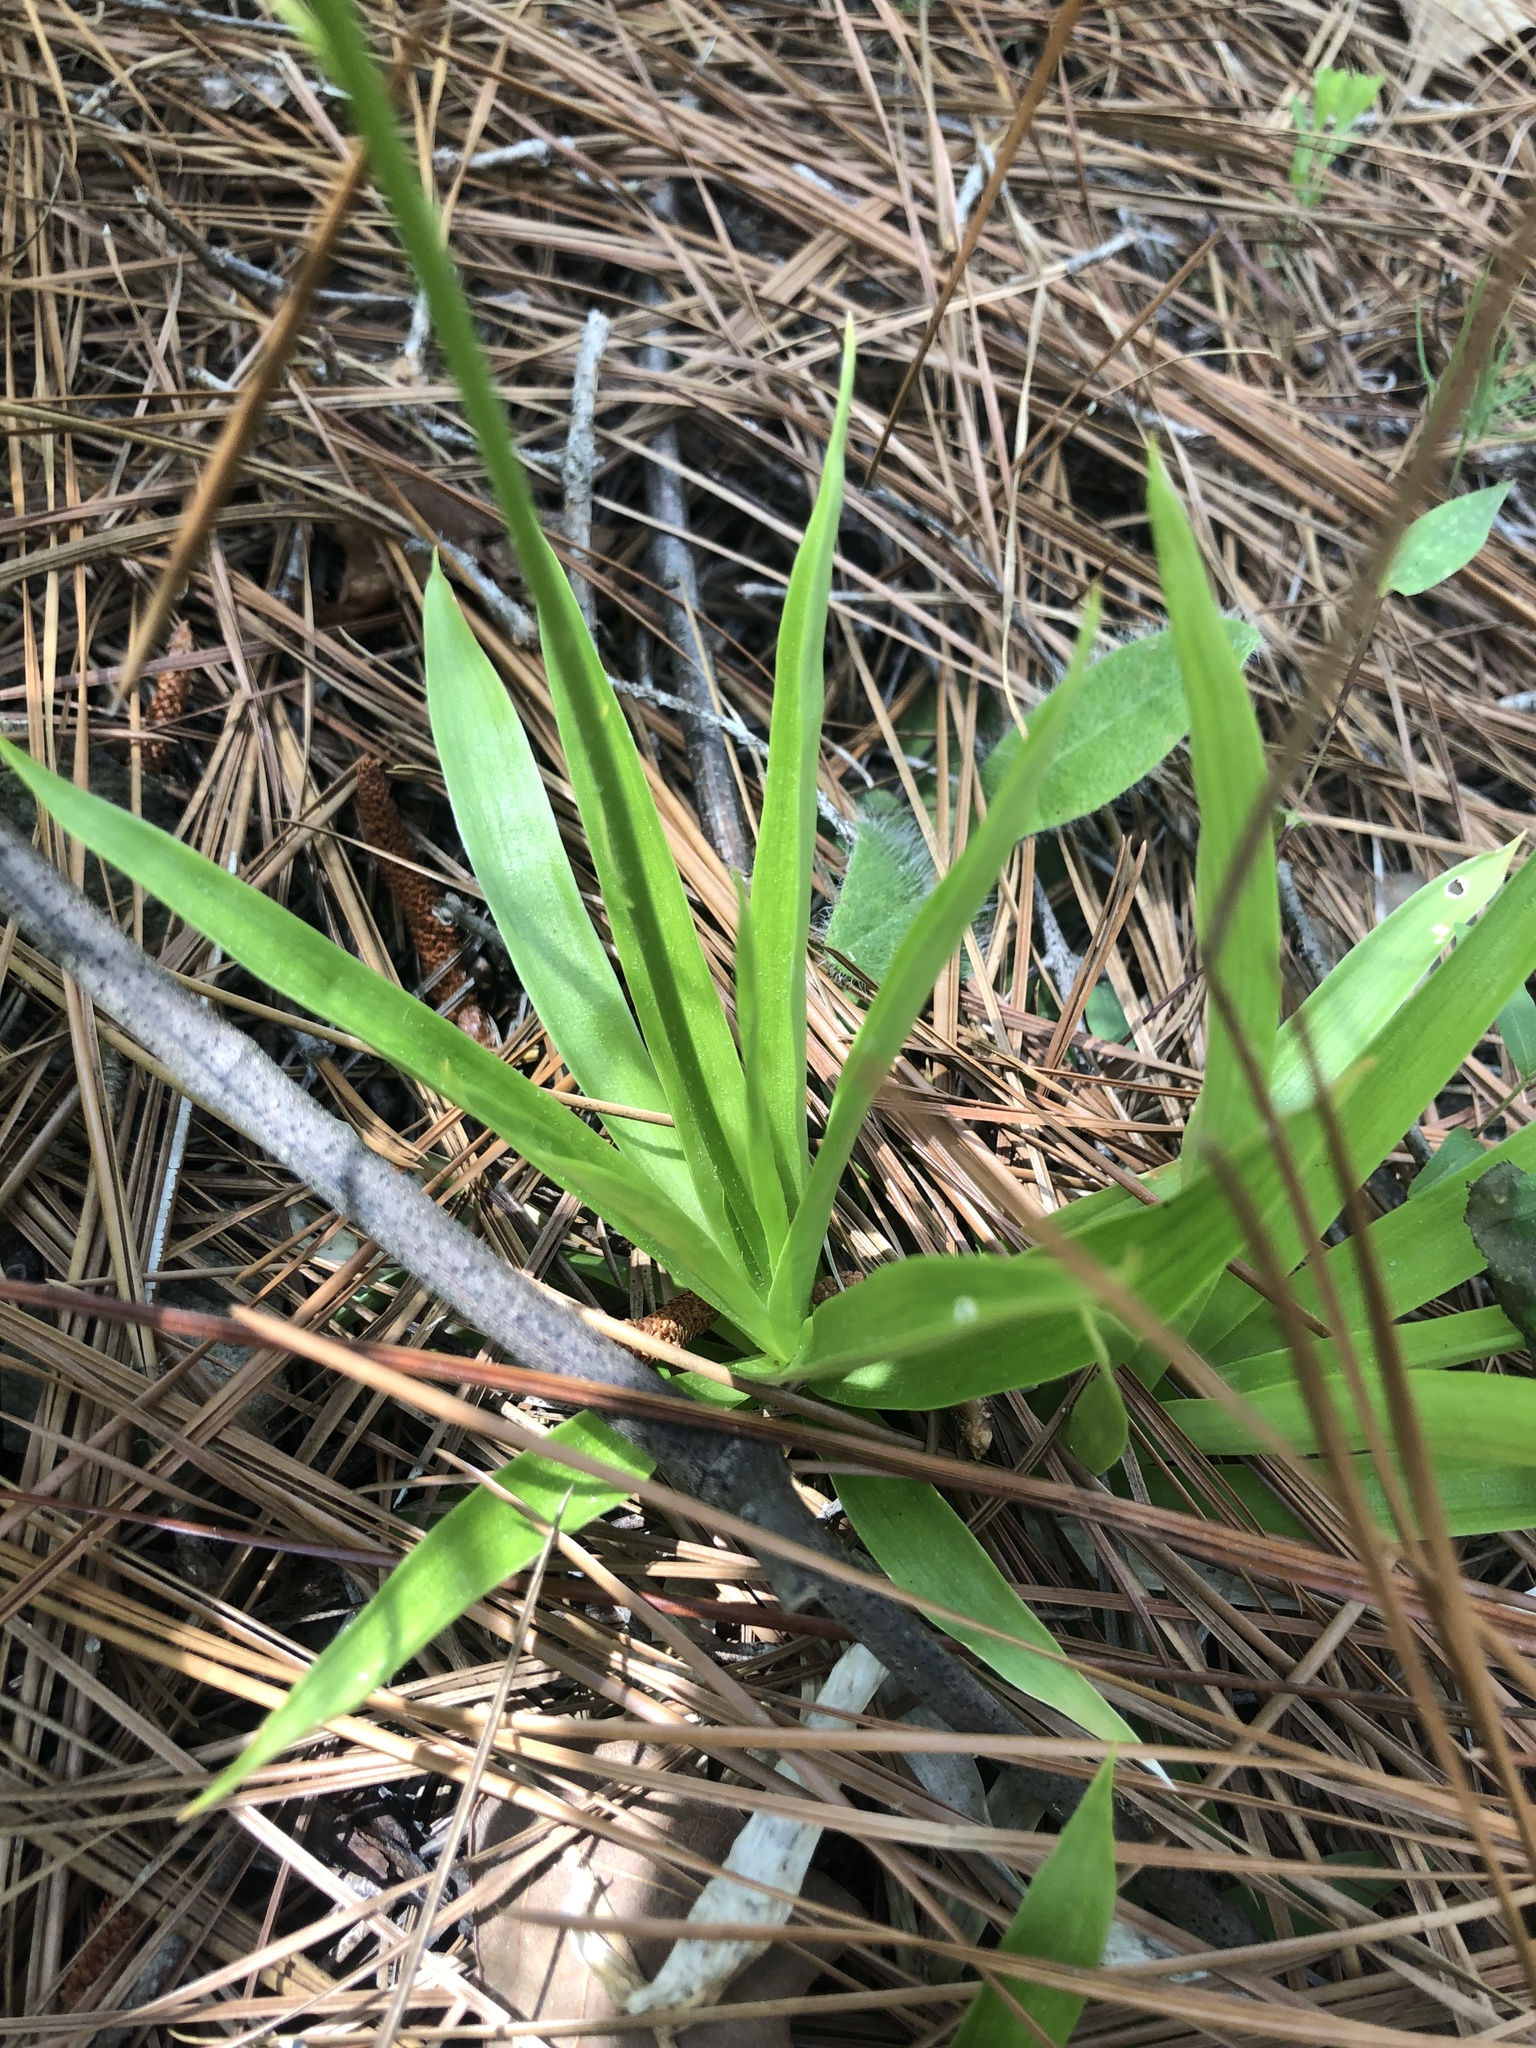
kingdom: Plantae
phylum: Tracheophyta
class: Liliopsida
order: Dioscoreales
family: Nartheciaceae
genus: Aletris
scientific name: Aletris farinosa
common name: Colicroot
